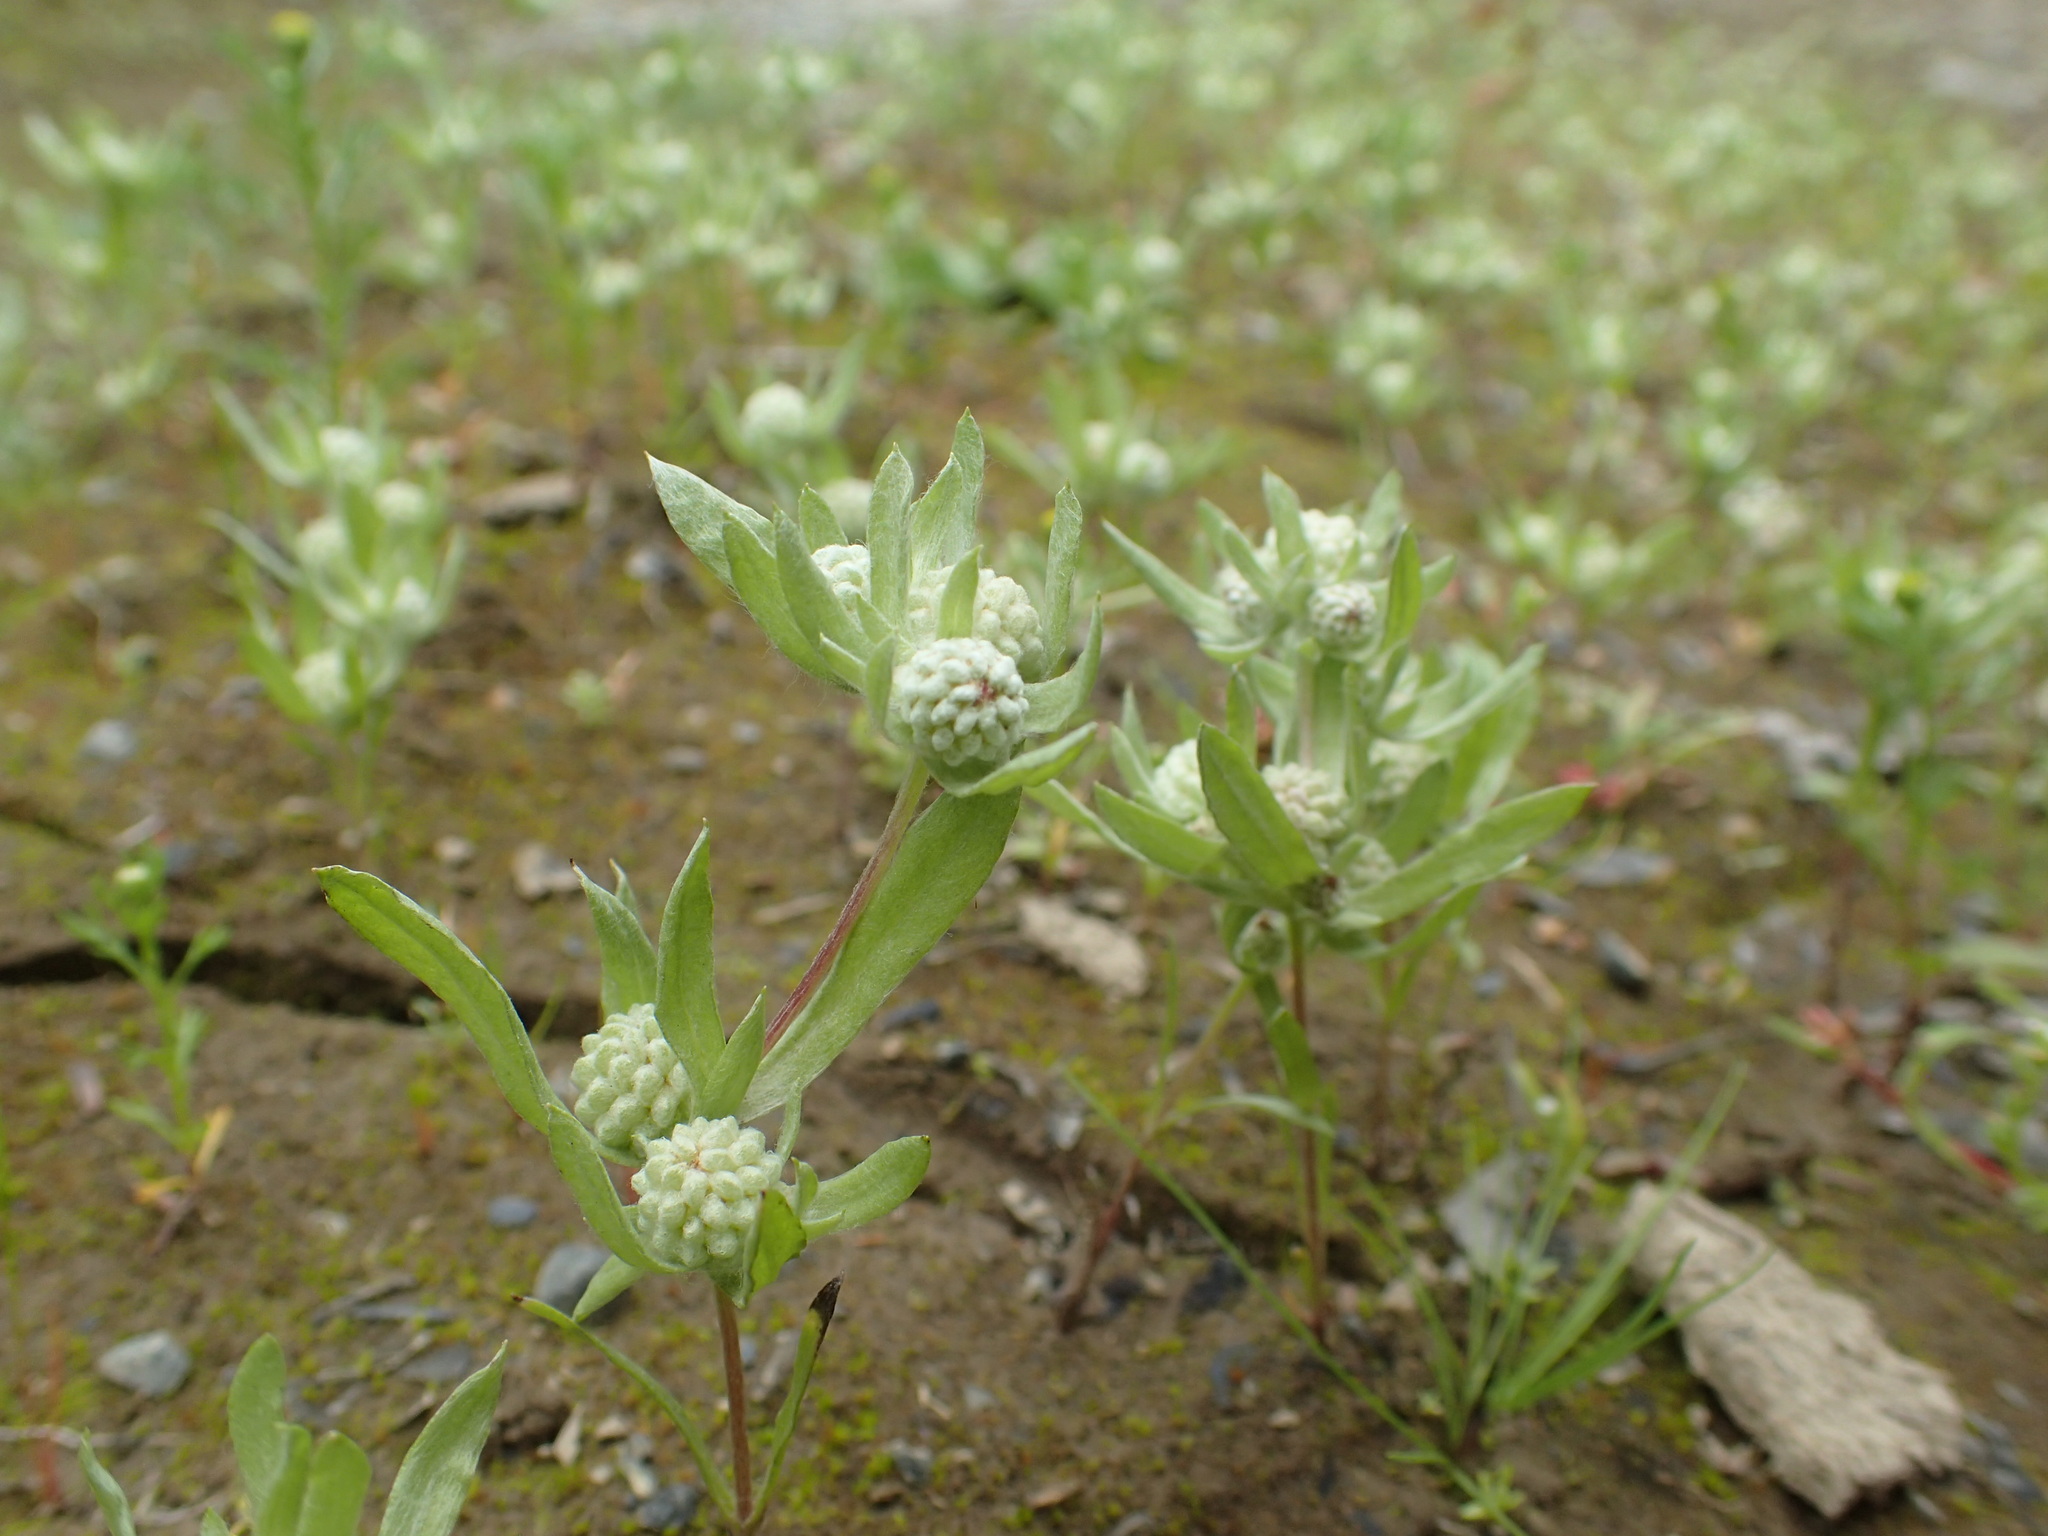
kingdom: Plantae
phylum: Tracheophyta
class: Magnoliopsida
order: Asterales
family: Asteraceae
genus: Psilocarphus
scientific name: Psilocarphus elatior
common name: Meadow woollyheads
